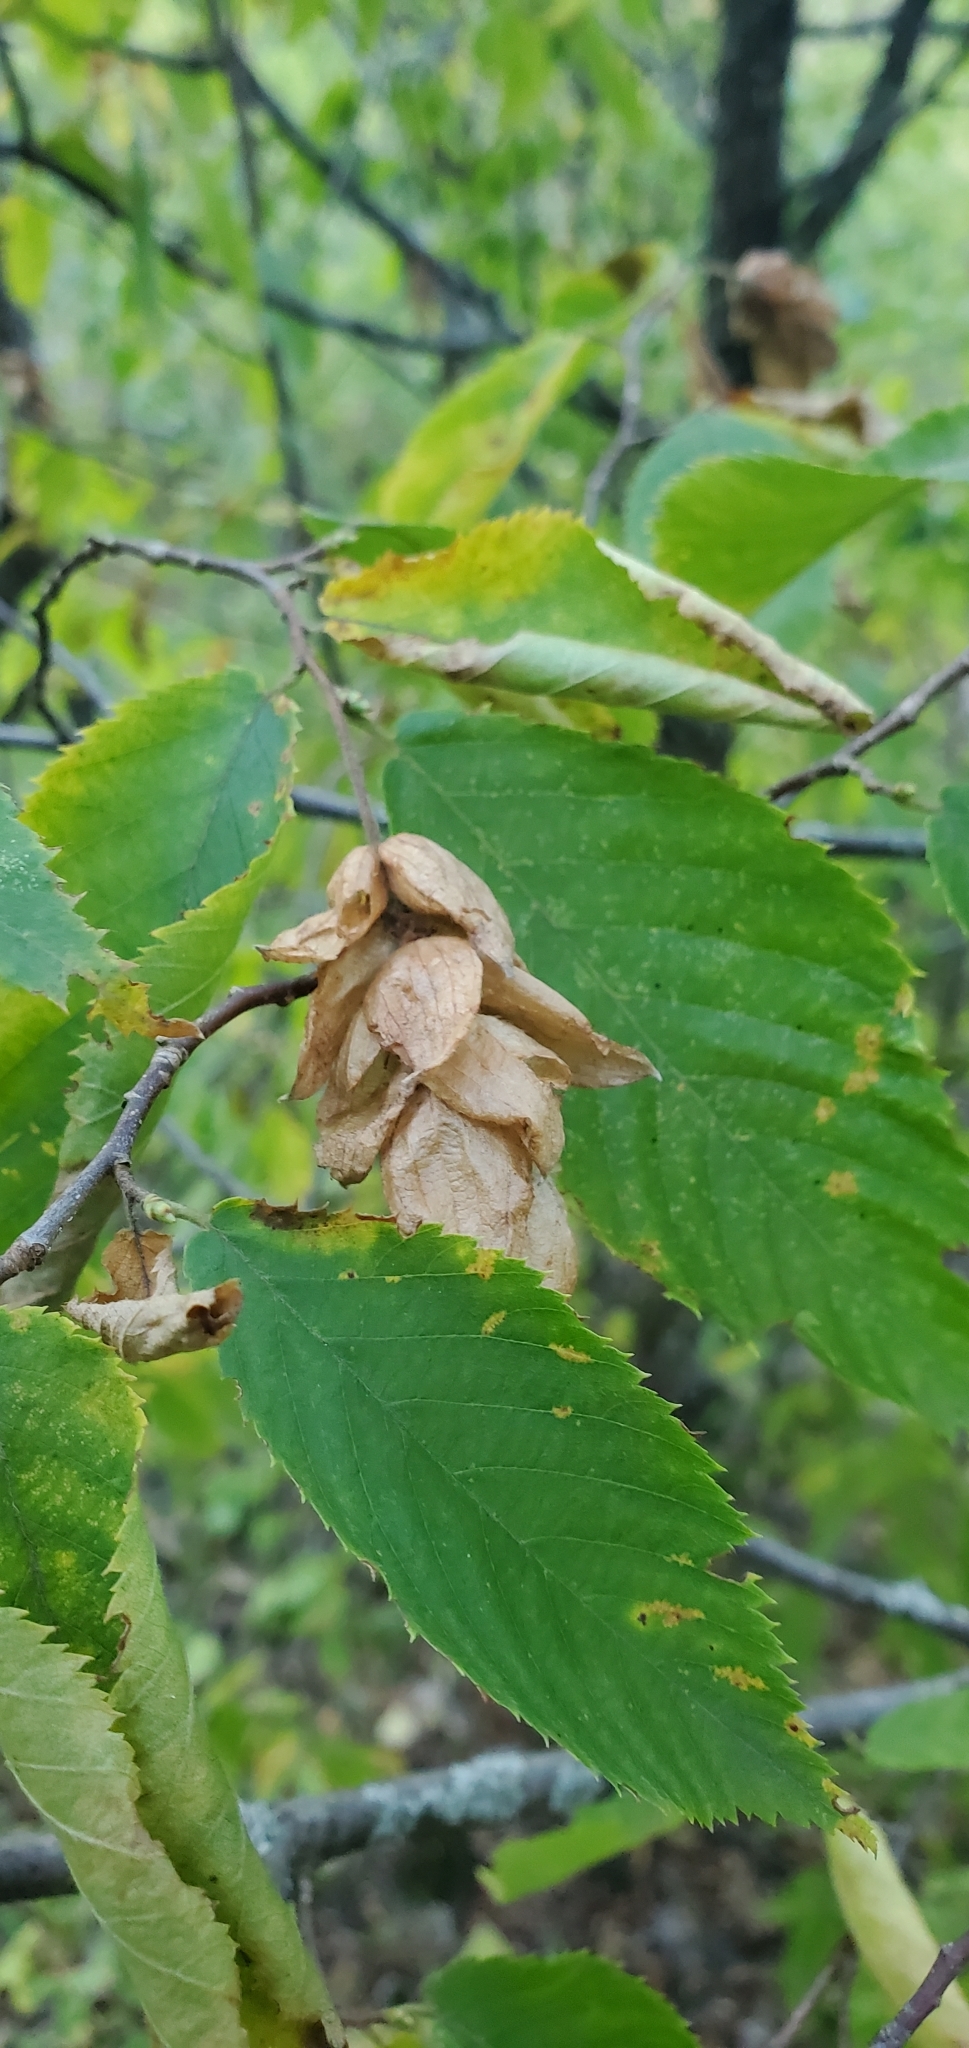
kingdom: Plantae
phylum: Tracheophyta
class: Magnoliopsida
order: Fagales
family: Betulaceae
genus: Ostrya
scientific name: Ostrya virginiana
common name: Ironwood
